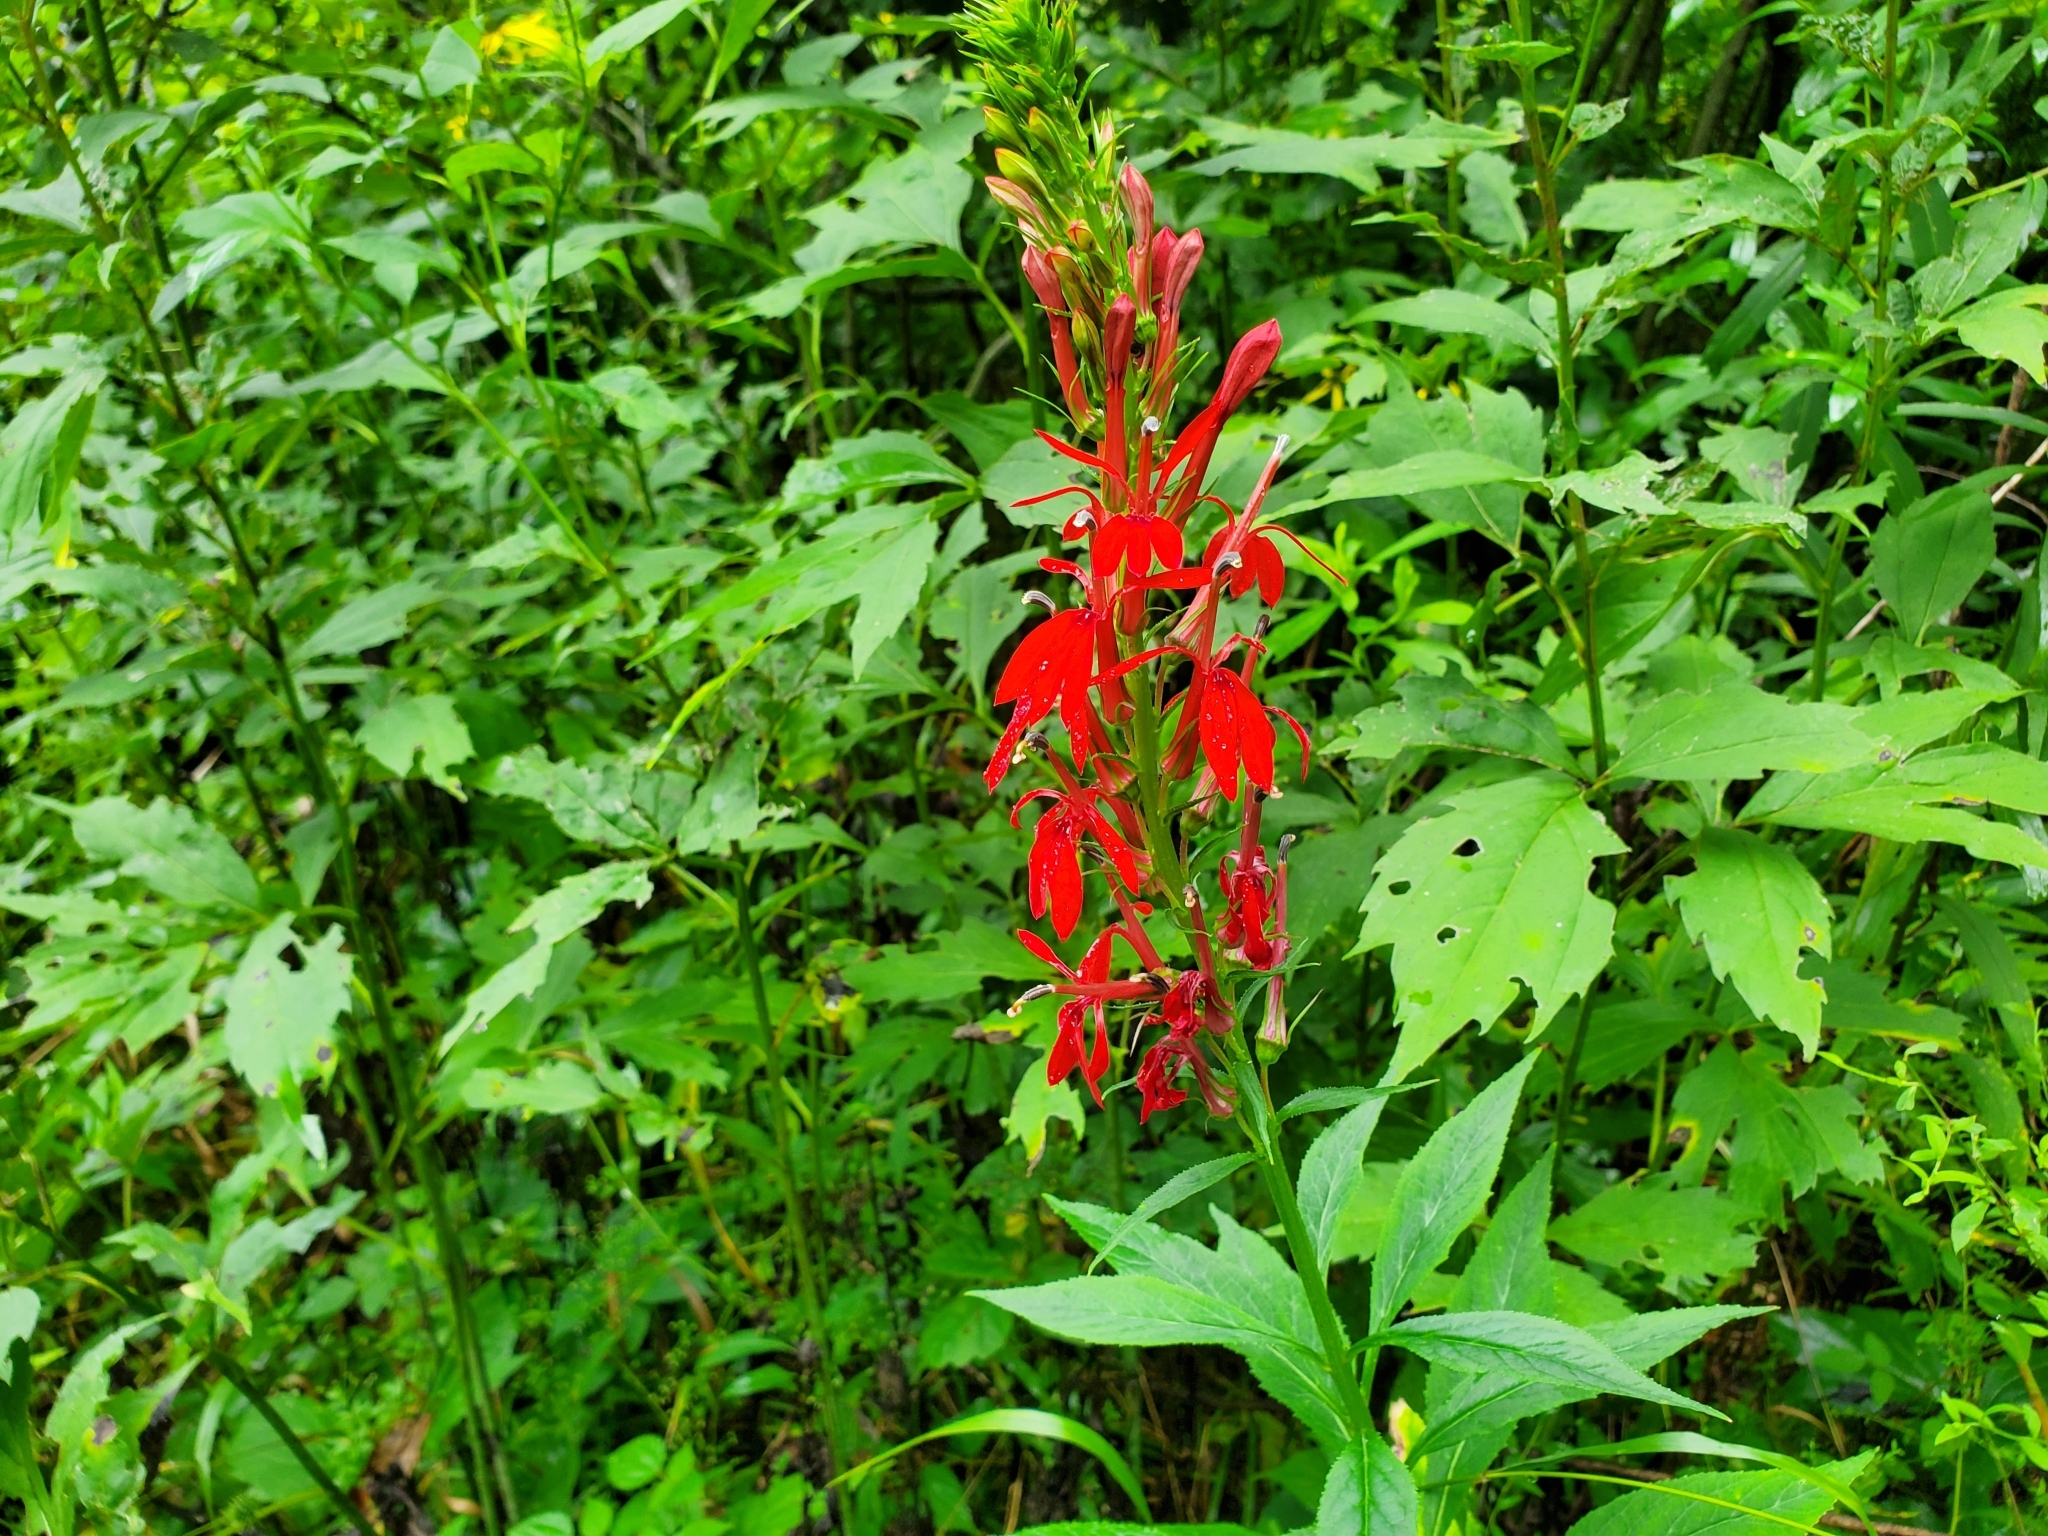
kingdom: Plantae
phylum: Tracheophyta
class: Magnoliopsida
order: Asterales
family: Campanulaceae
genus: Lobelia
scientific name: Lobelia cardinalis
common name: Cardinal flower
